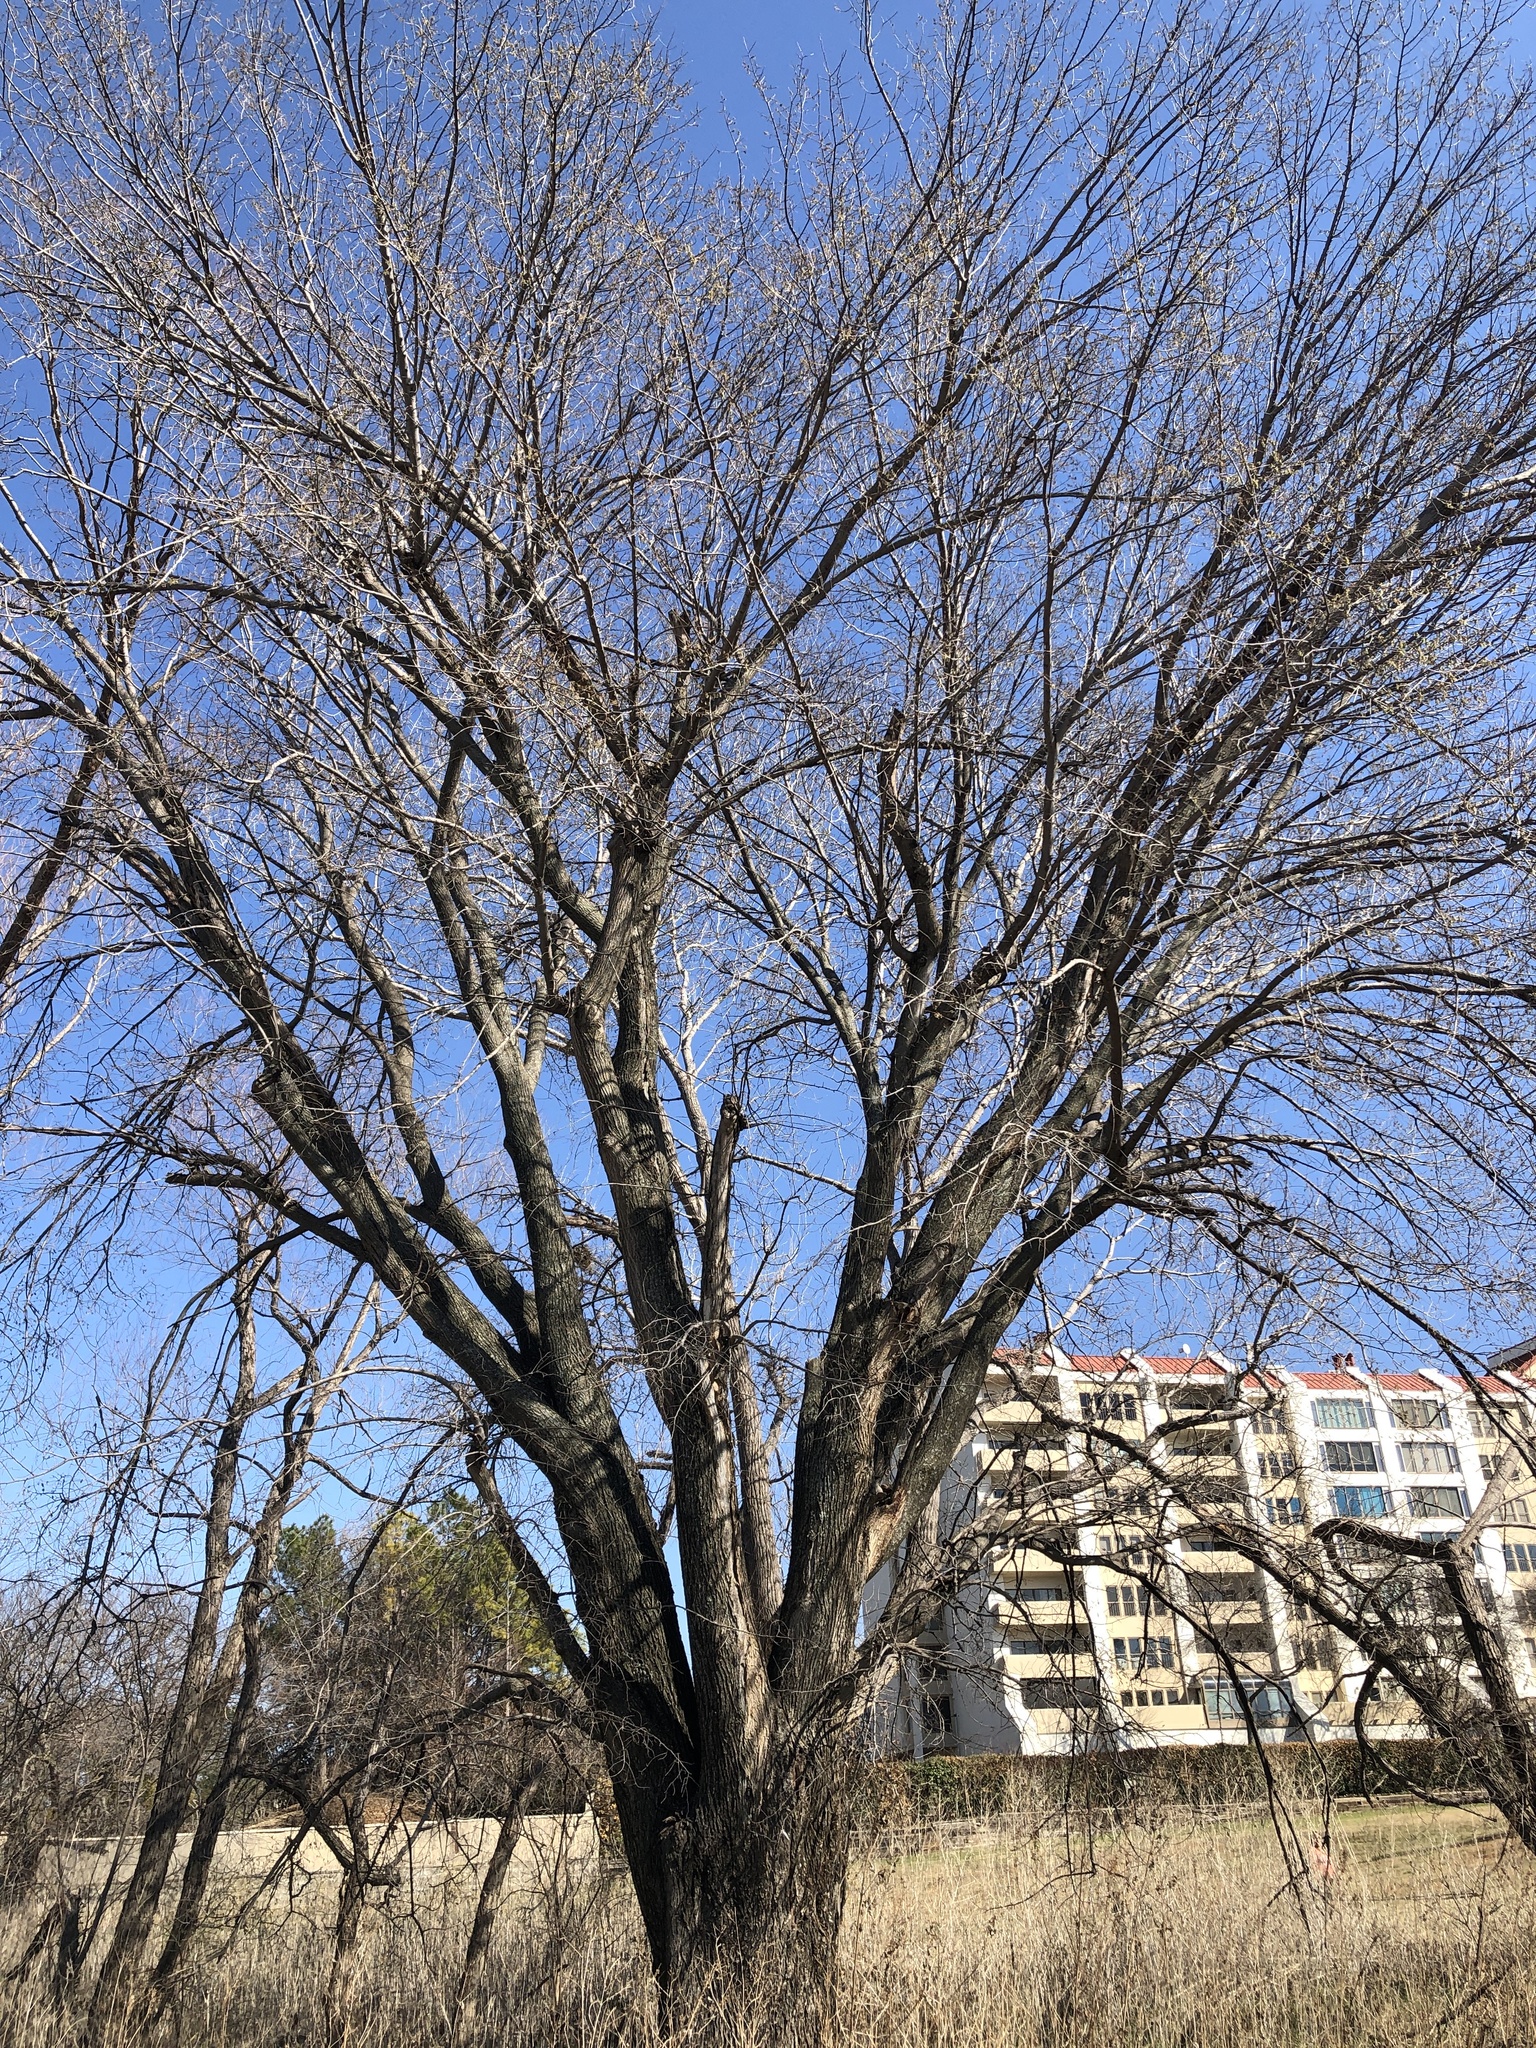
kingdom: Plantae
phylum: Tracheophyta
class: Magnoliopsida
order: Rosales
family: Ulmaceae
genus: Ulmus
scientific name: Ulmus americana
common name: American elm
